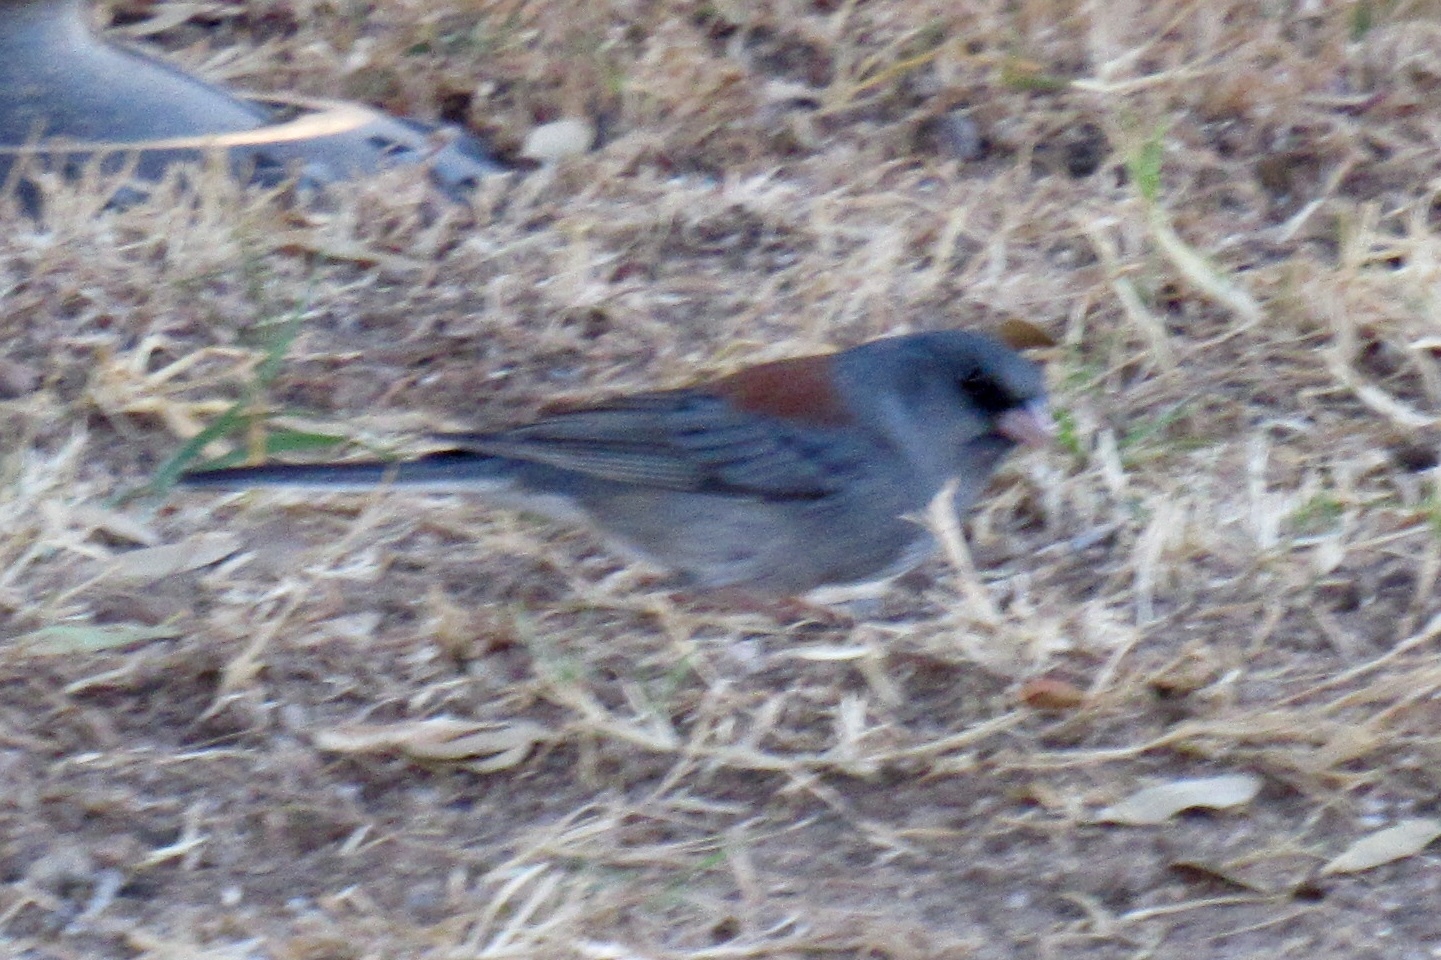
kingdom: Animalia
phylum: Chordata
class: Aves
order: Passeriformes
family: Passerellidae
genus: Junco
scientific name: Junco hyemalis
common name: Dark-eyed junco
